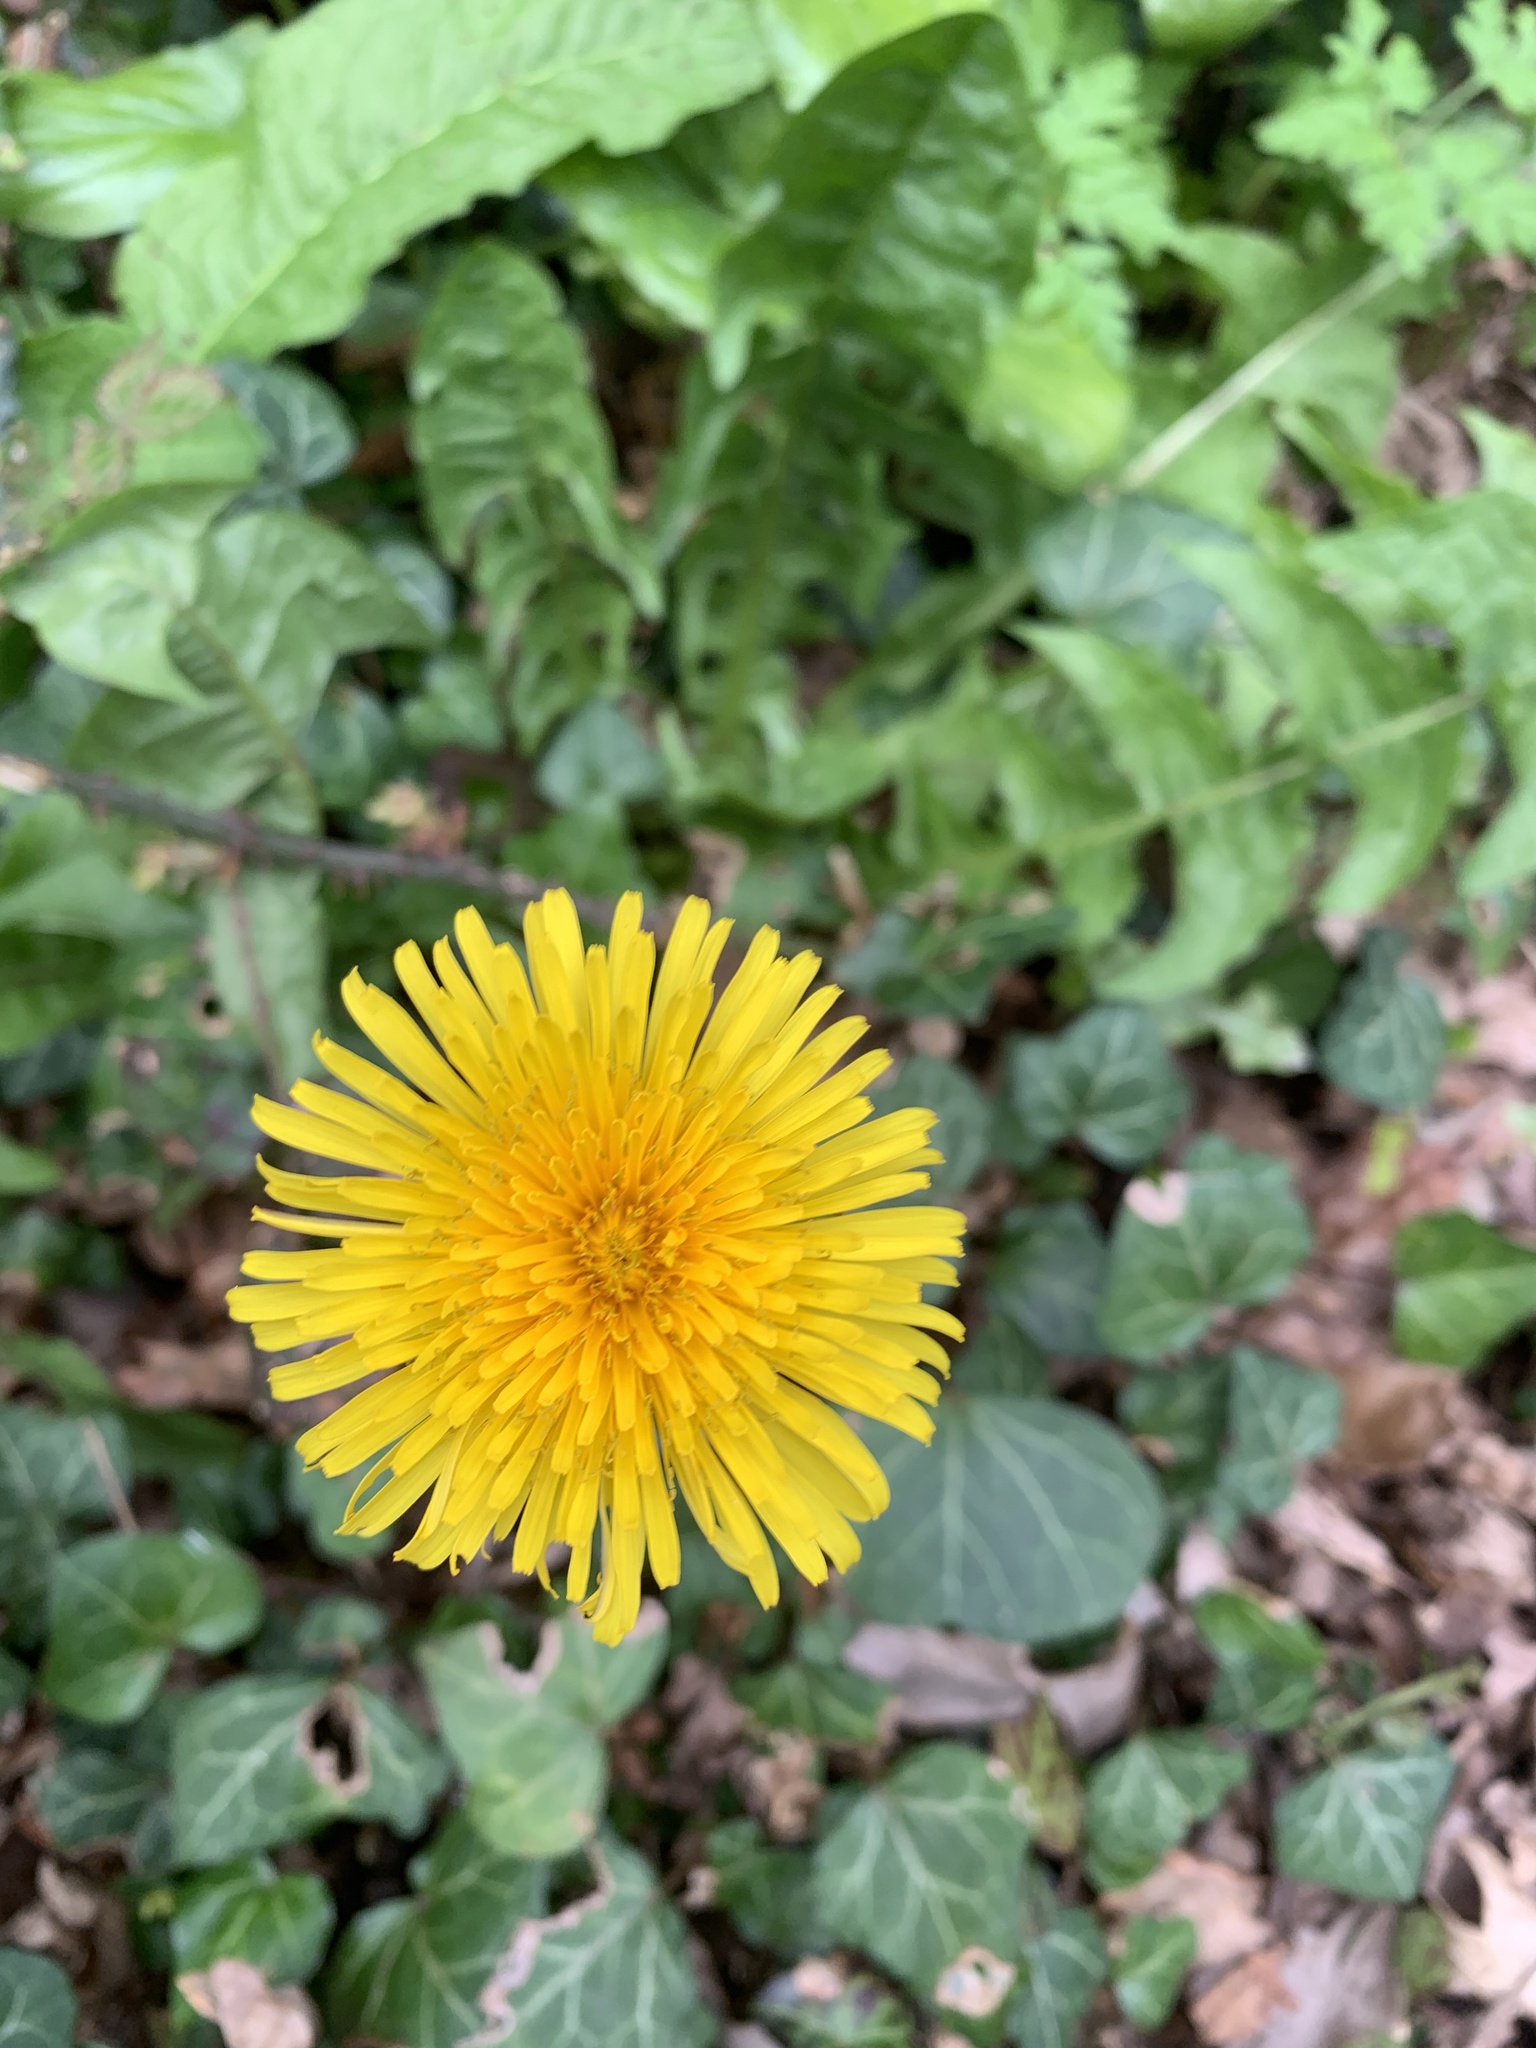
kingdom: Plantae
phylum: Tracheophyta
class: Magnoliopsida
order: Asterales
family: Asteraceae
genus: Taraxacum
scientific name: Taraxacum officinale
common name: Common dandelion
